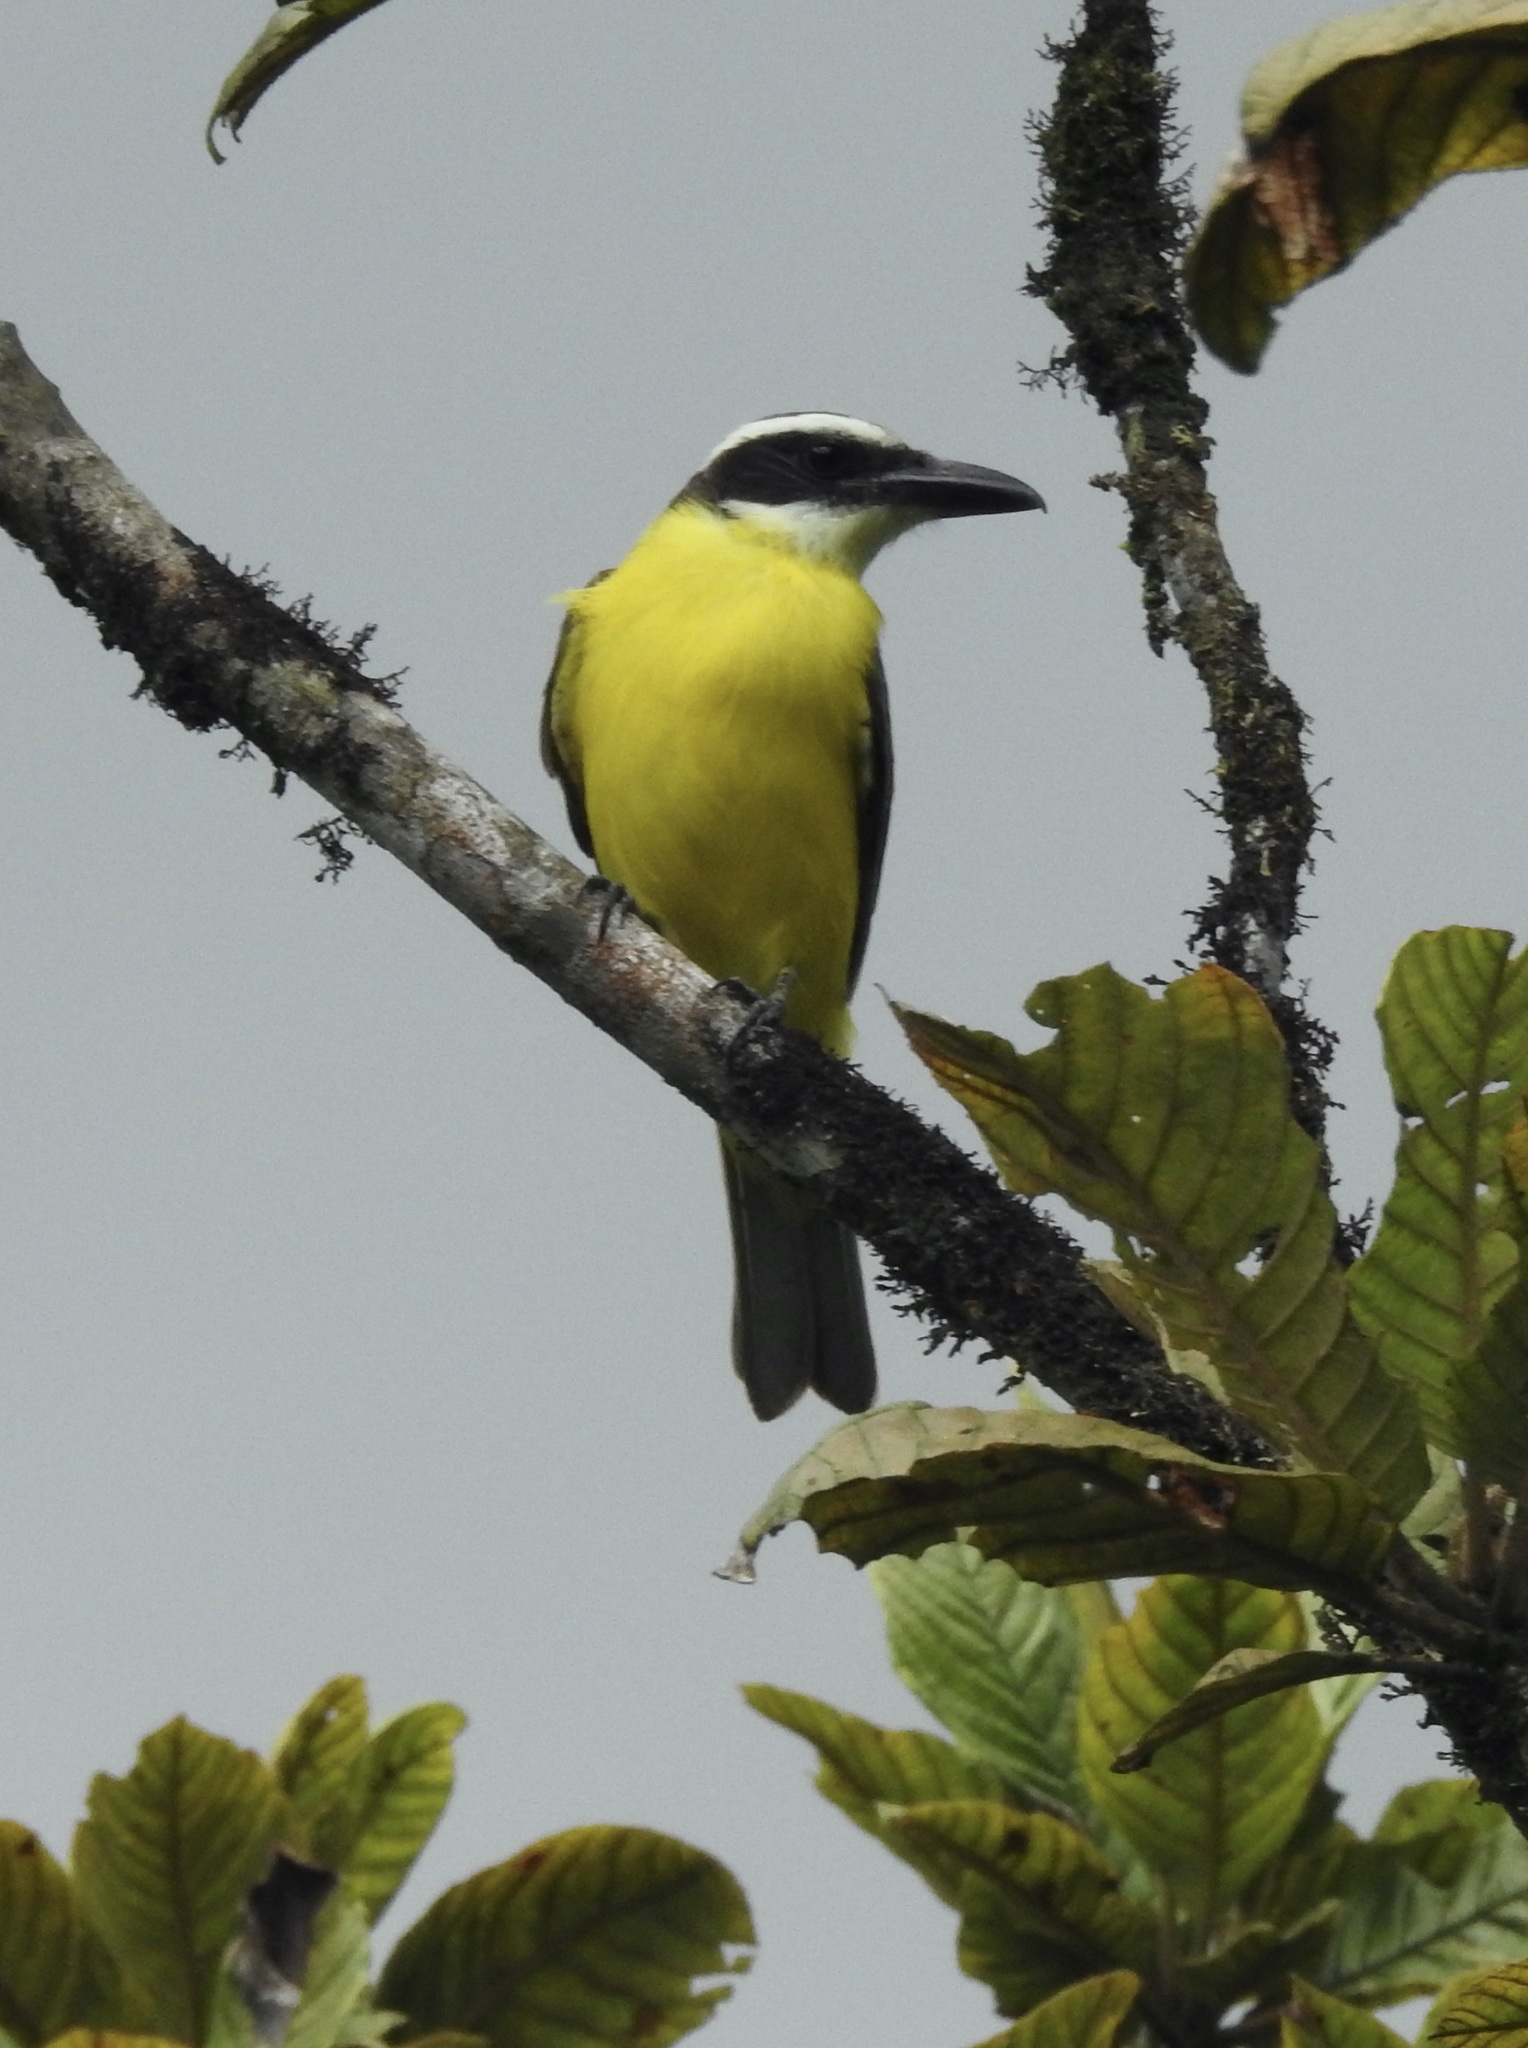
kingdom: Animalia
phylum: Chordata
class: Aves
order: Passeriformes
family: Tyrannidae
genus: Megarynchus
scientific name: Megarynchus pitangua
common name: Boat-billed flycatcher
